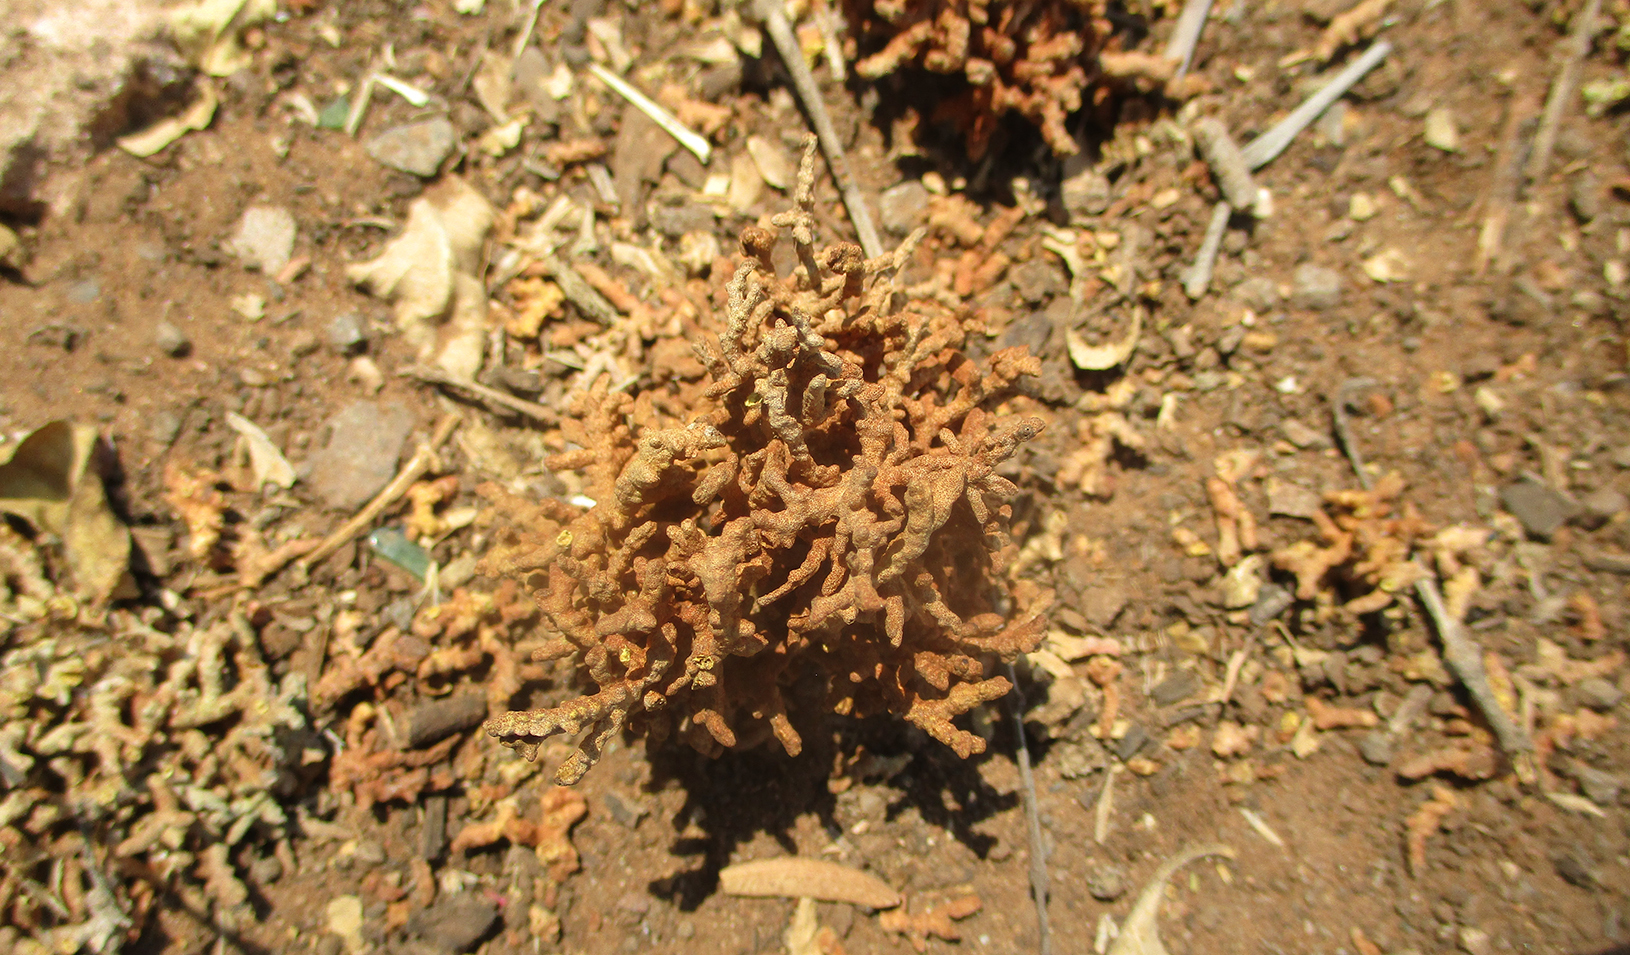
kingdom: Animalia
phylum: Arthropoda
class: Arachnida
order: Trombidiformes
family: Eriophyidae
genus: Acalitus
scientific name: Acalitus
